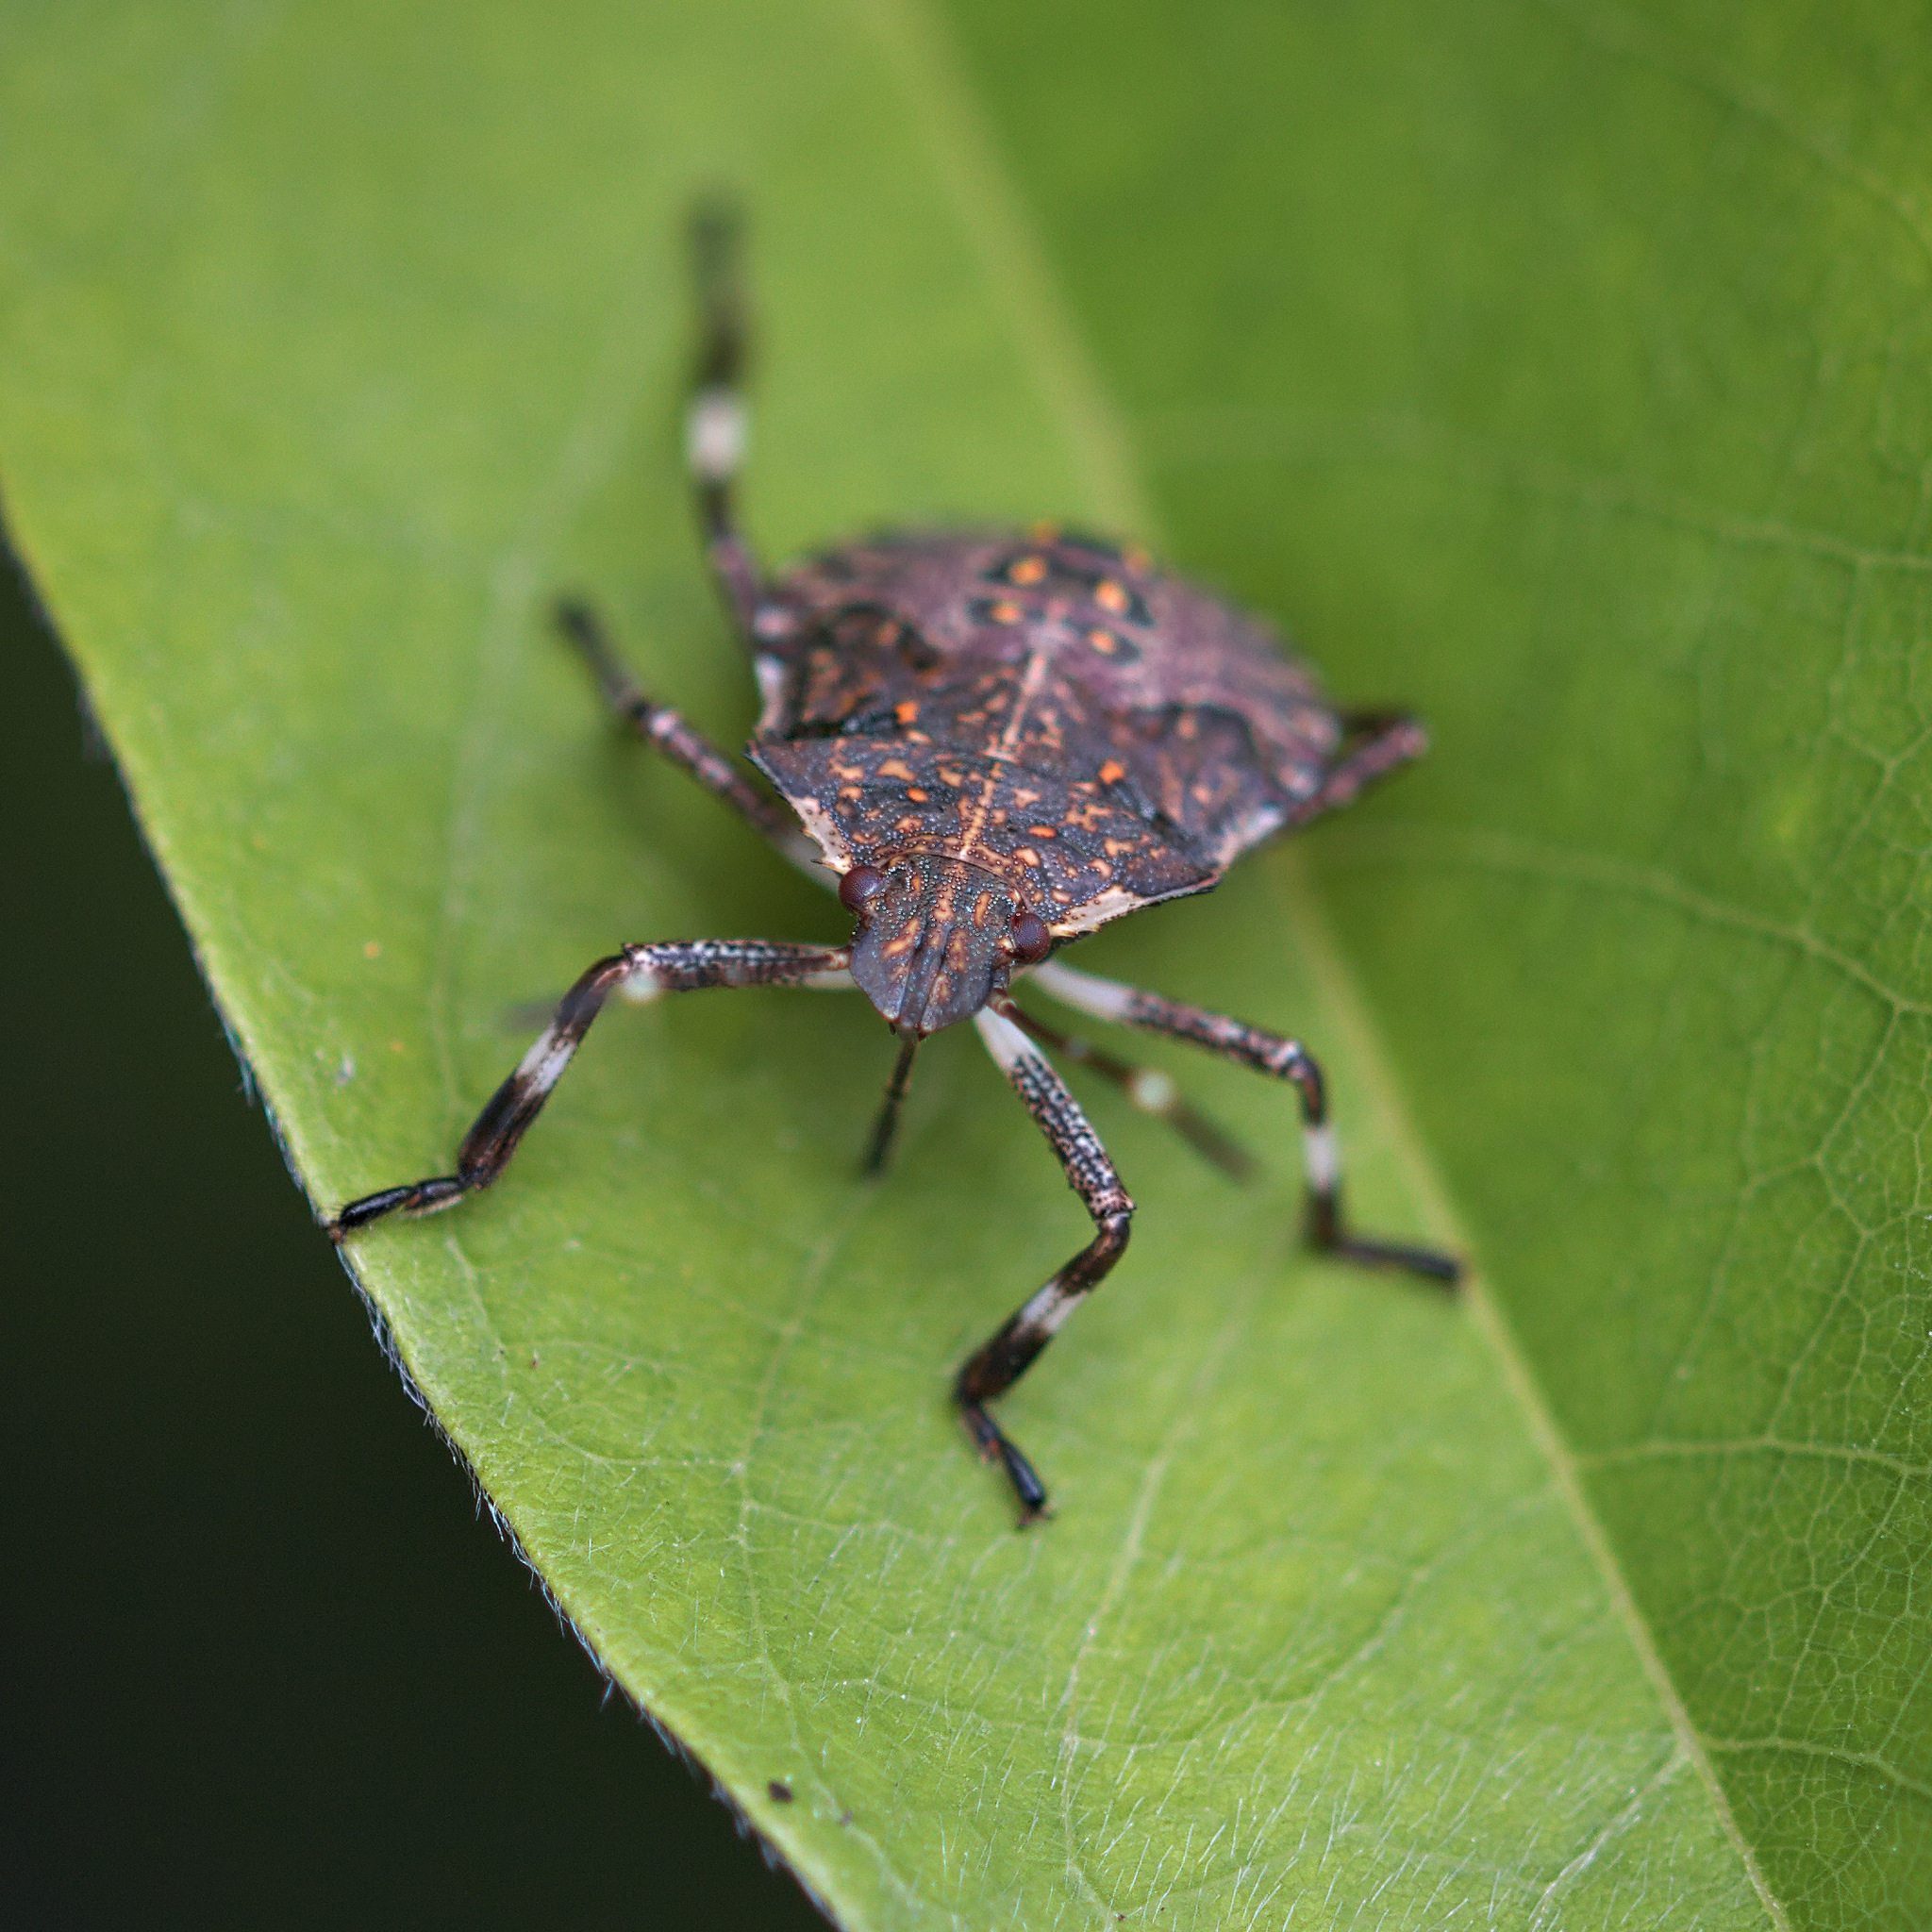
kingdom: Animalia
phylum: Arthropoda
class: Insecta
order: Hemiptera
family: Pentatomidae
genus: Halyomorpha
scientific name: Halyomorpha halys
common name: Brown marmorated stink bug
